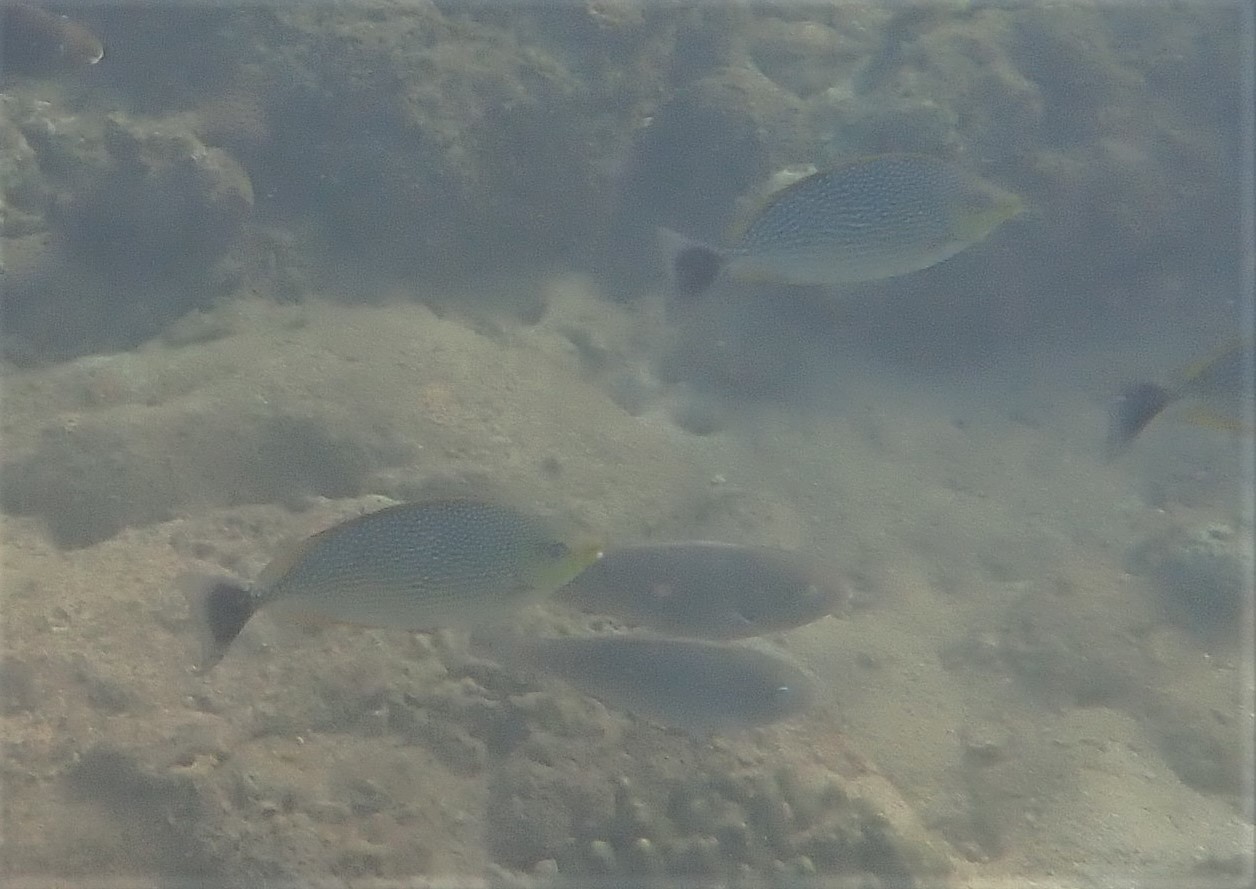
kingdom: Animalia
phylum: Chordata
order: Perciformes
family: Siganidae
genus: Siganus
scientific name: Siganus javus
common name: Java rabbitfish
